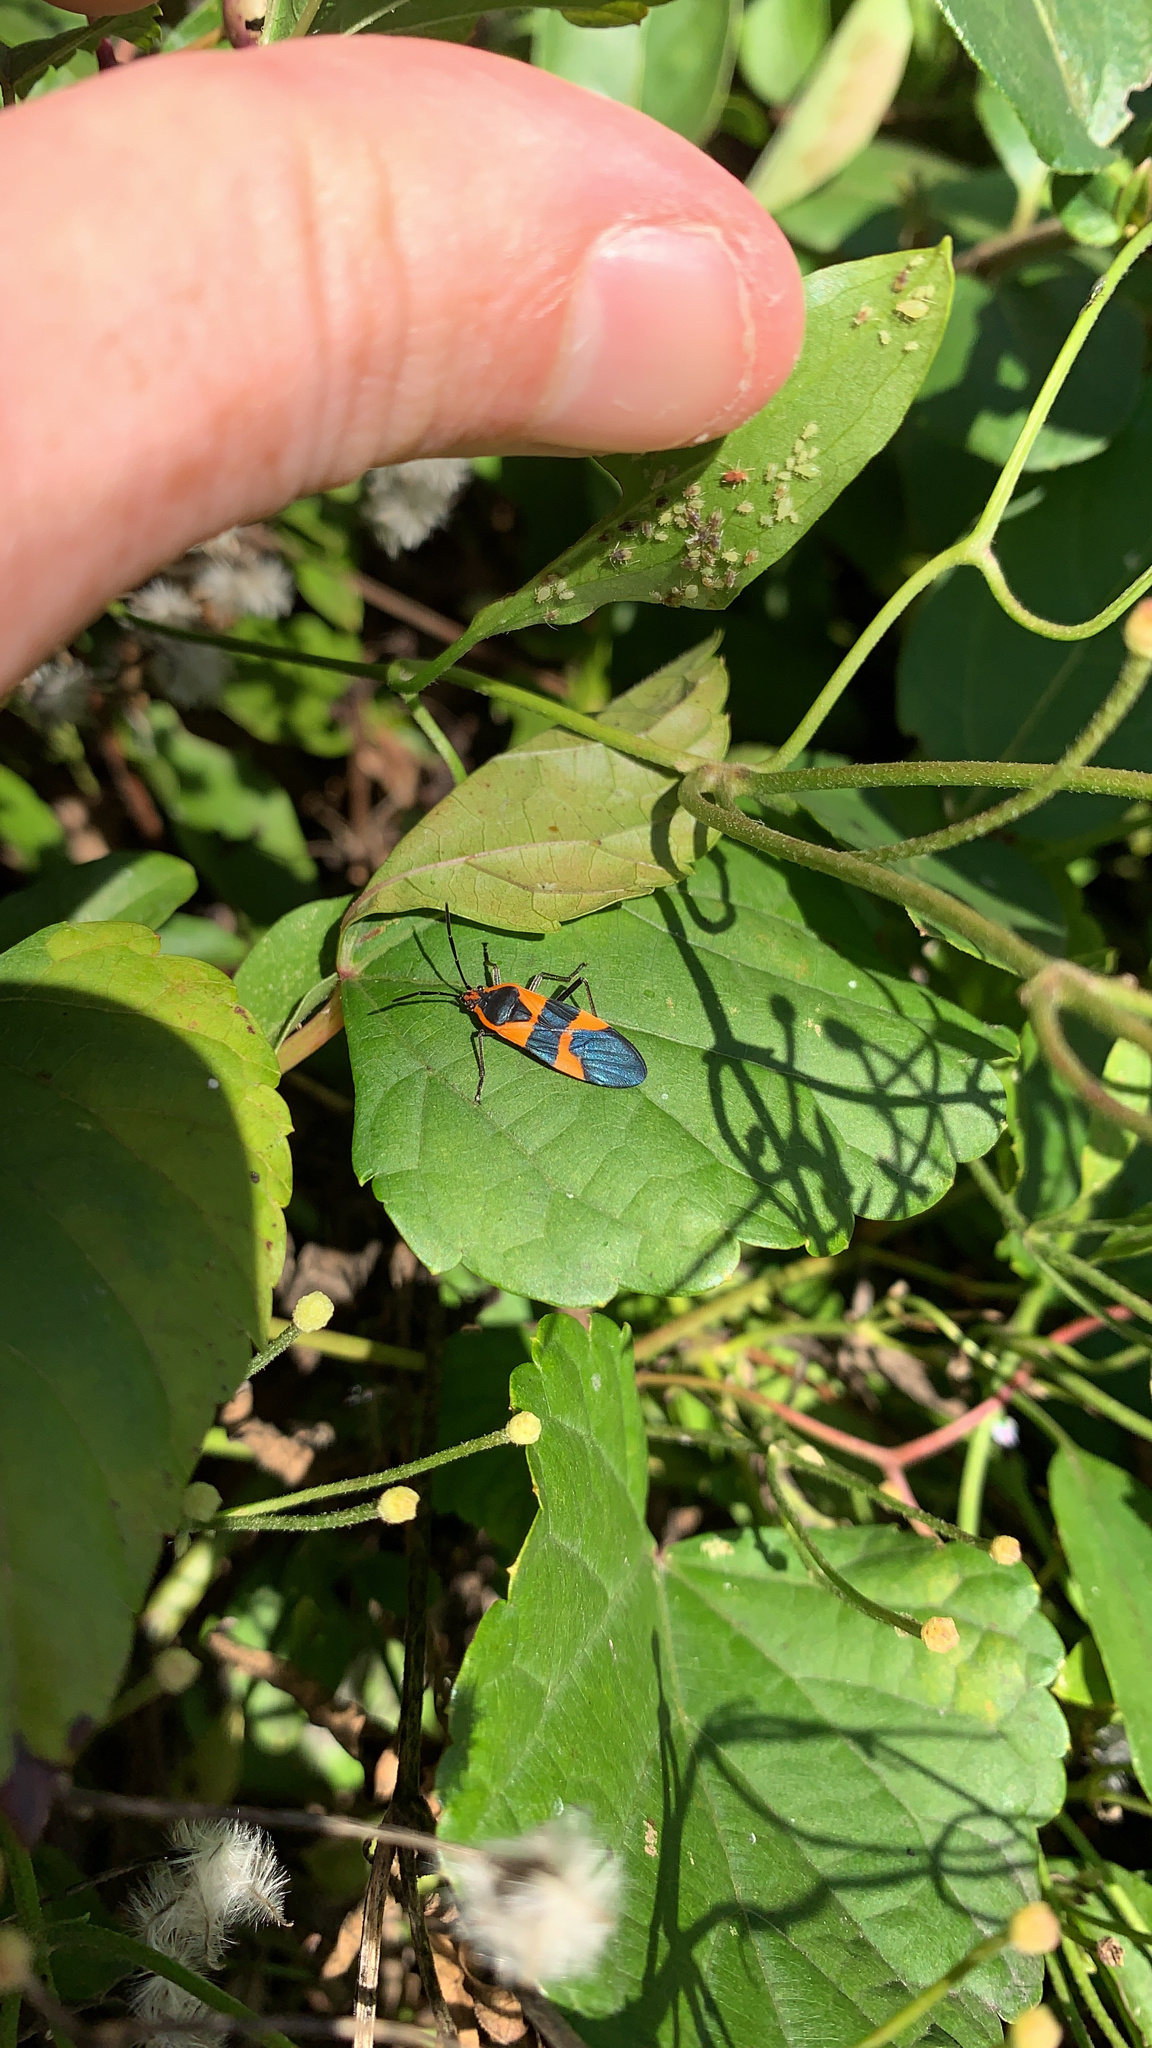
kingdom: Animalia
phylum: Arthropoda
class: Insecta
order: Hemiptera
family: Lygaeidae
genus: Oncopeltus
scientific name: Oncopeltus fasciatus
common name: Large milkweed bug
